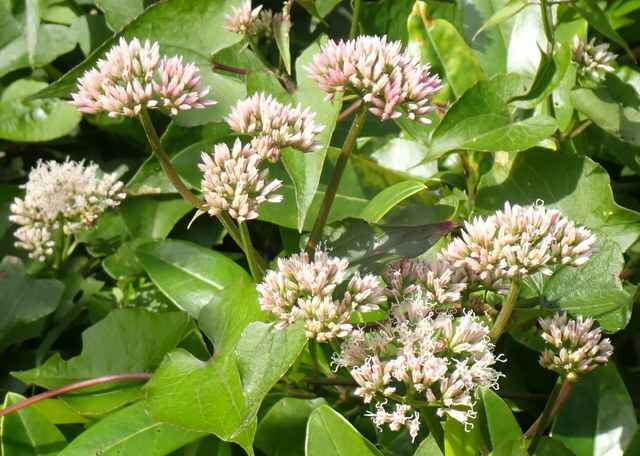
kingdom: Plantae
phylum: Tracheophyta
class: Magnoliopsida
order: Asterales
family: Asteraceae
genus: Mikania
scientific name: Mikania scandens
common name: Climbing hempvine
